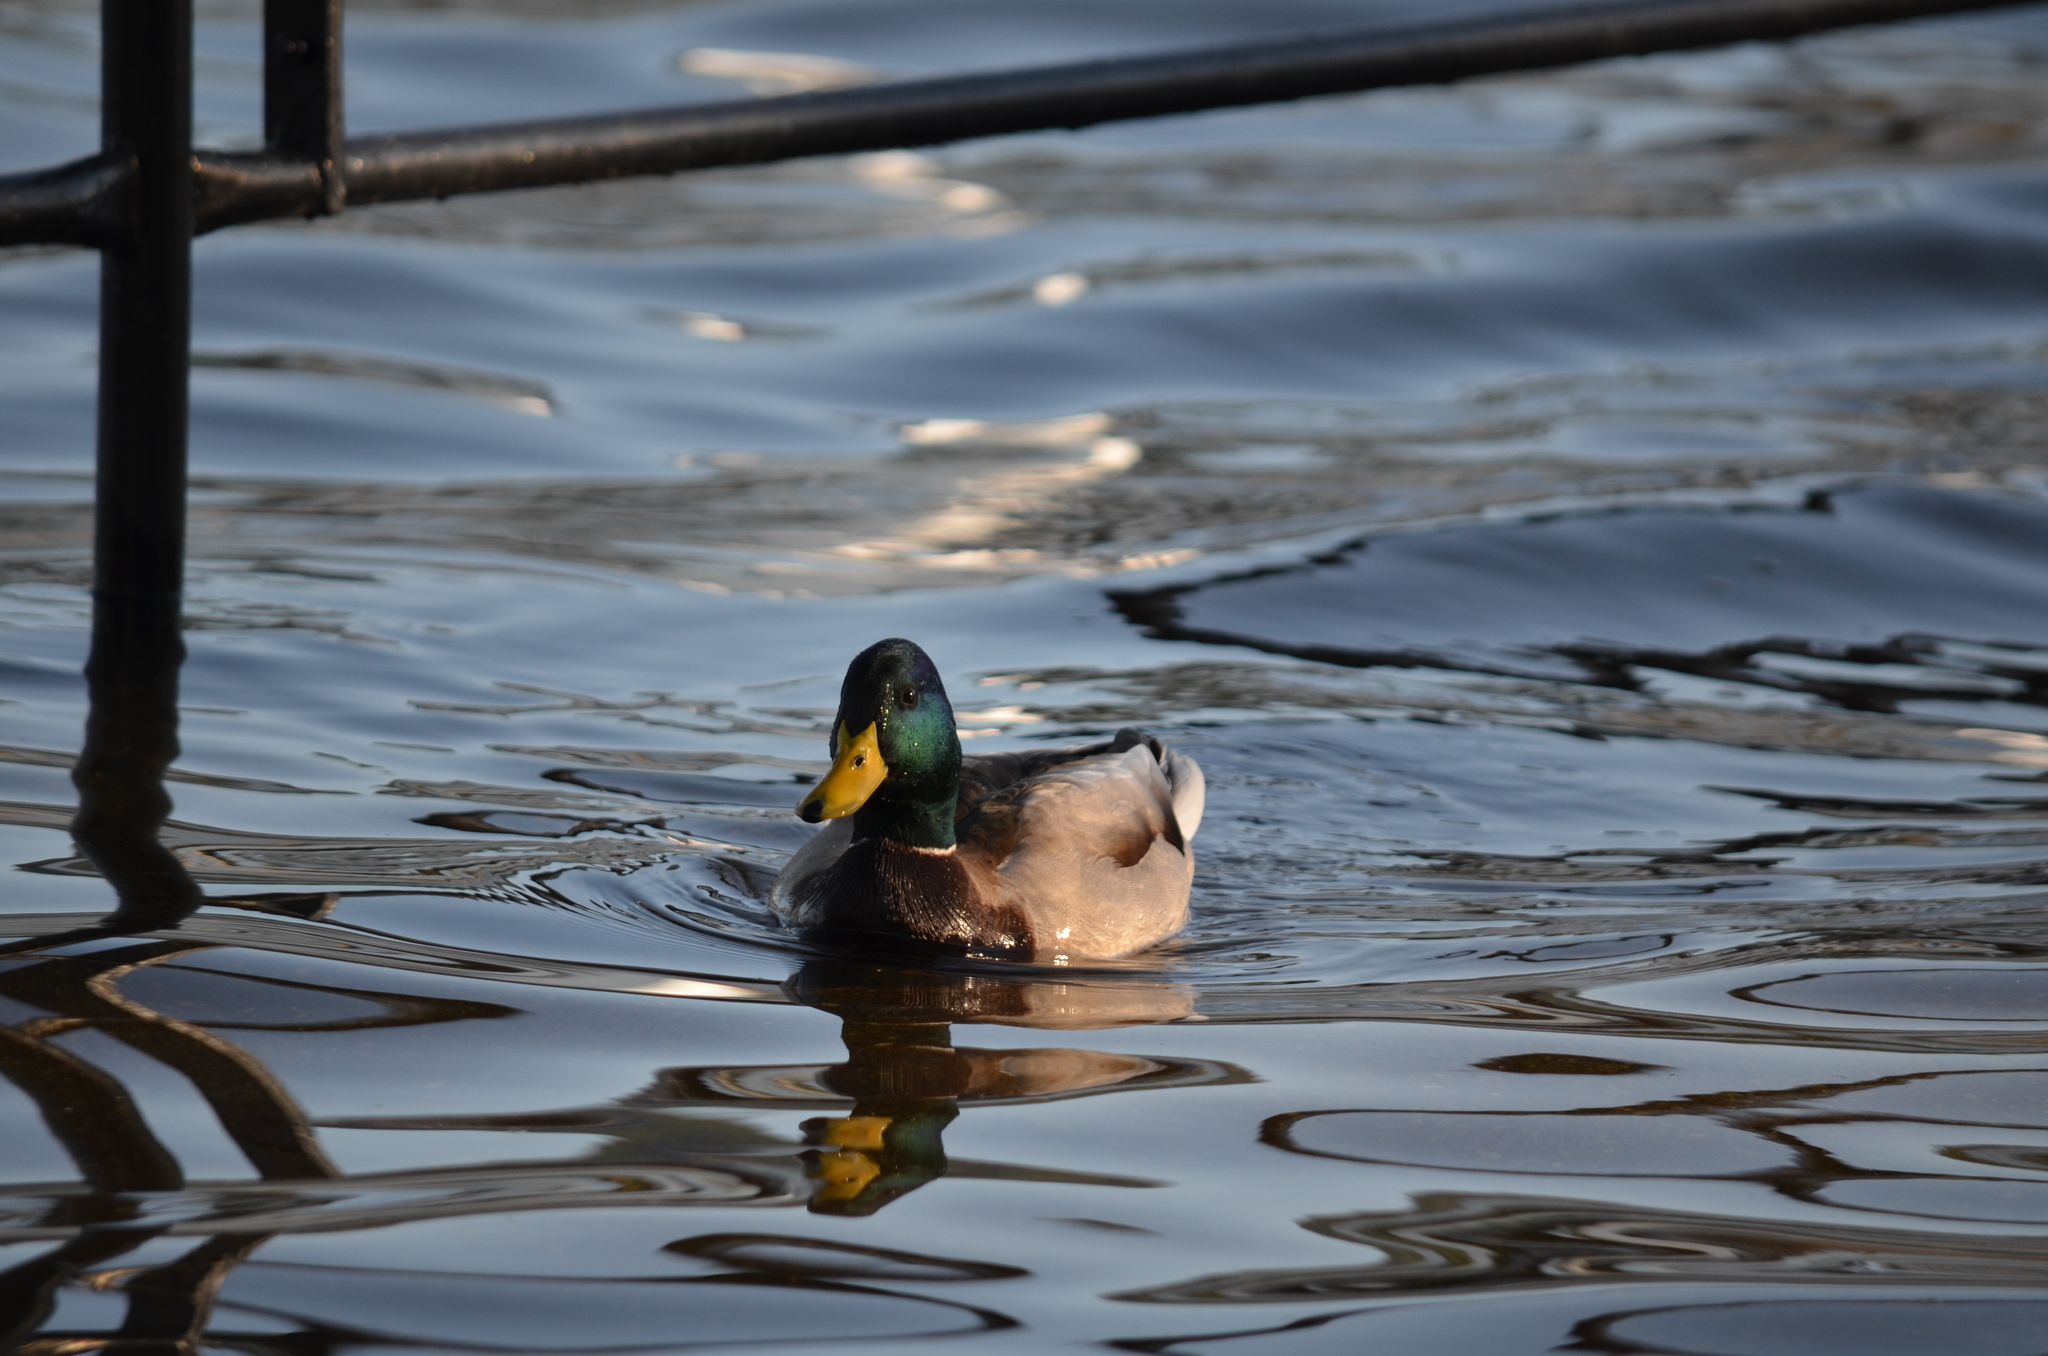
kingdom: Animalia
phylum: Chordata
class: Aves
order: Anseriformes
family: Anatidae
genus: Anas
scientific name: Anas platyrhynchos
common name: Mallard
